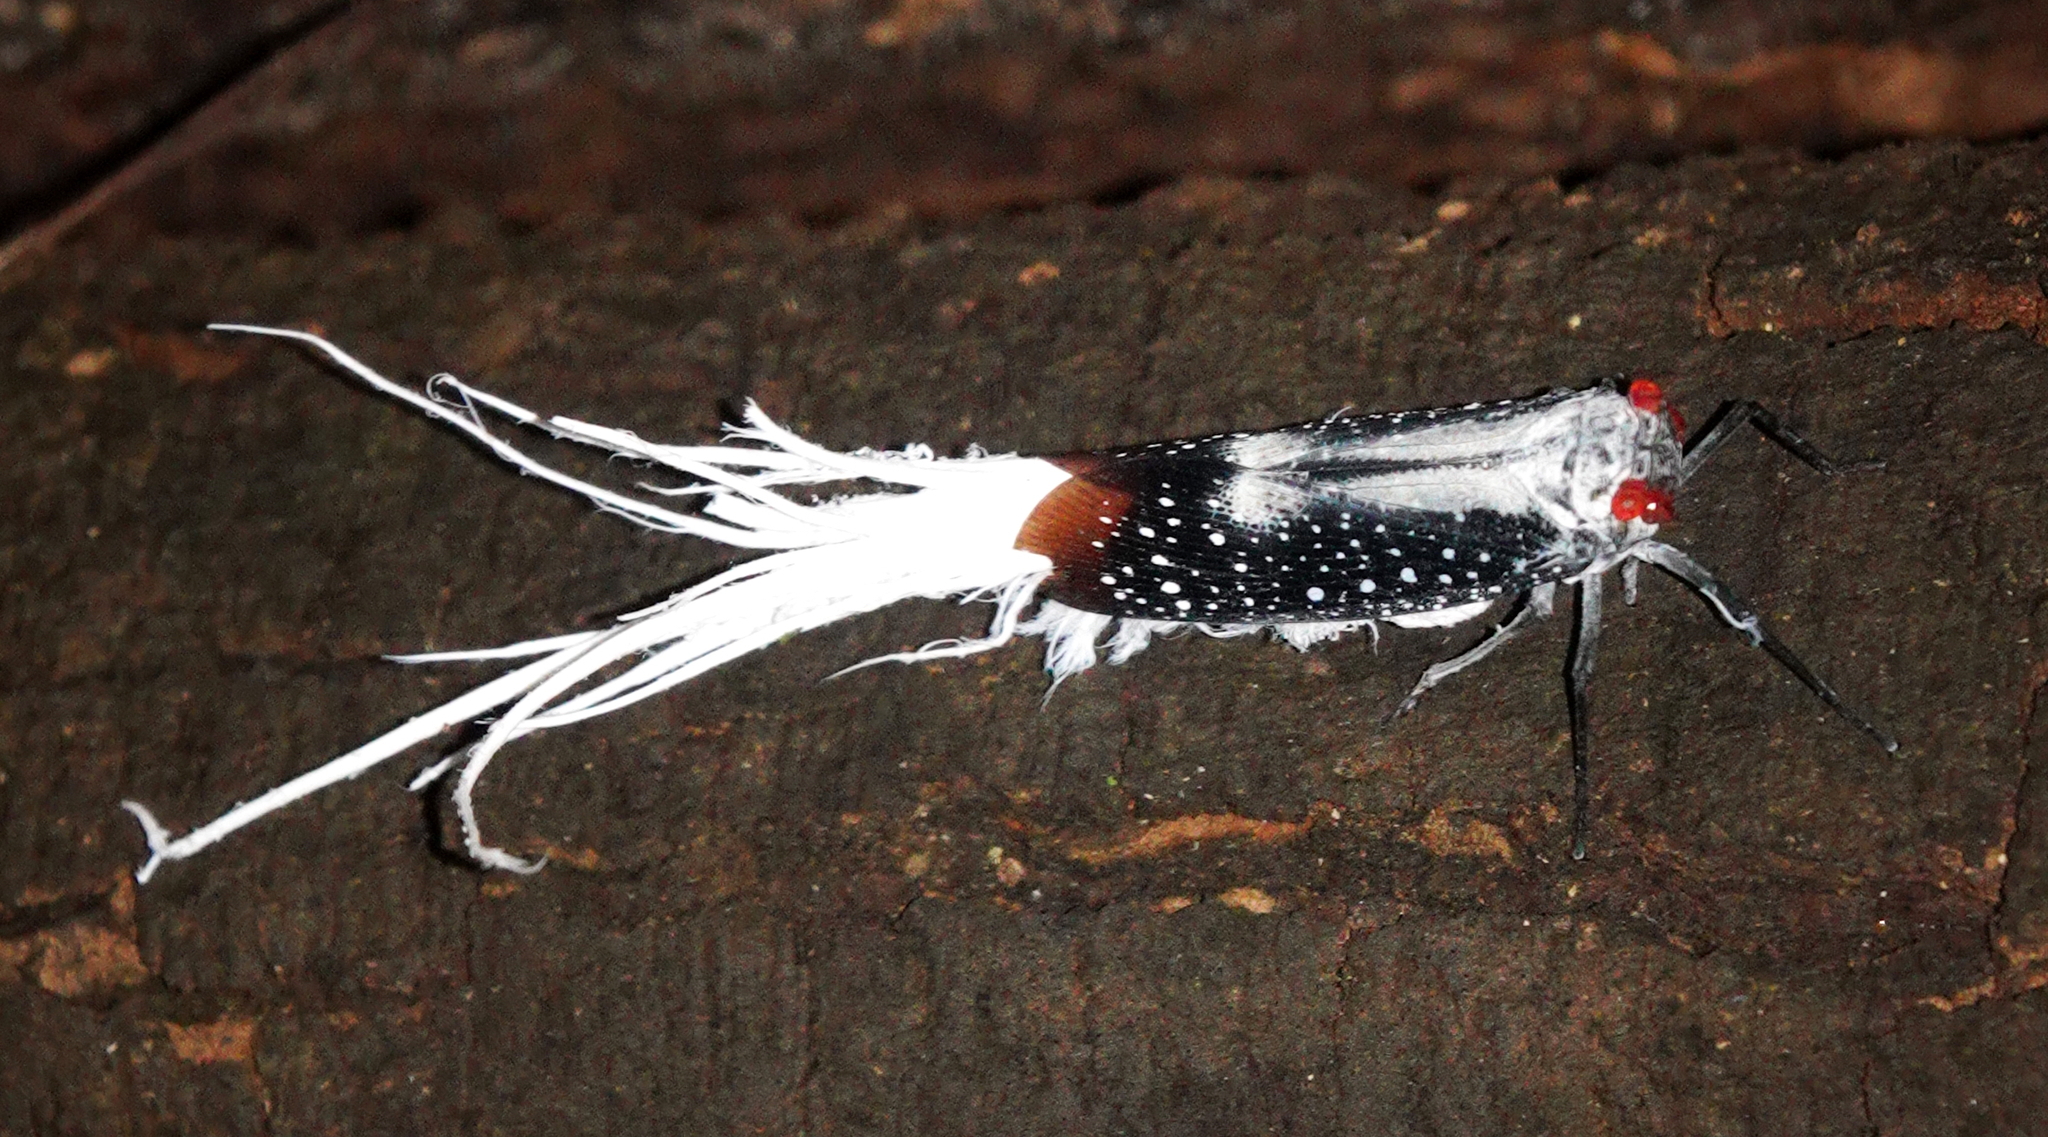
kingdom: Animalia
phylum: Arthropoda
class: Insecta
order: Hemiptera
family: Fulgoridae
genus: Lystra
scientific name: Lystra lanata
